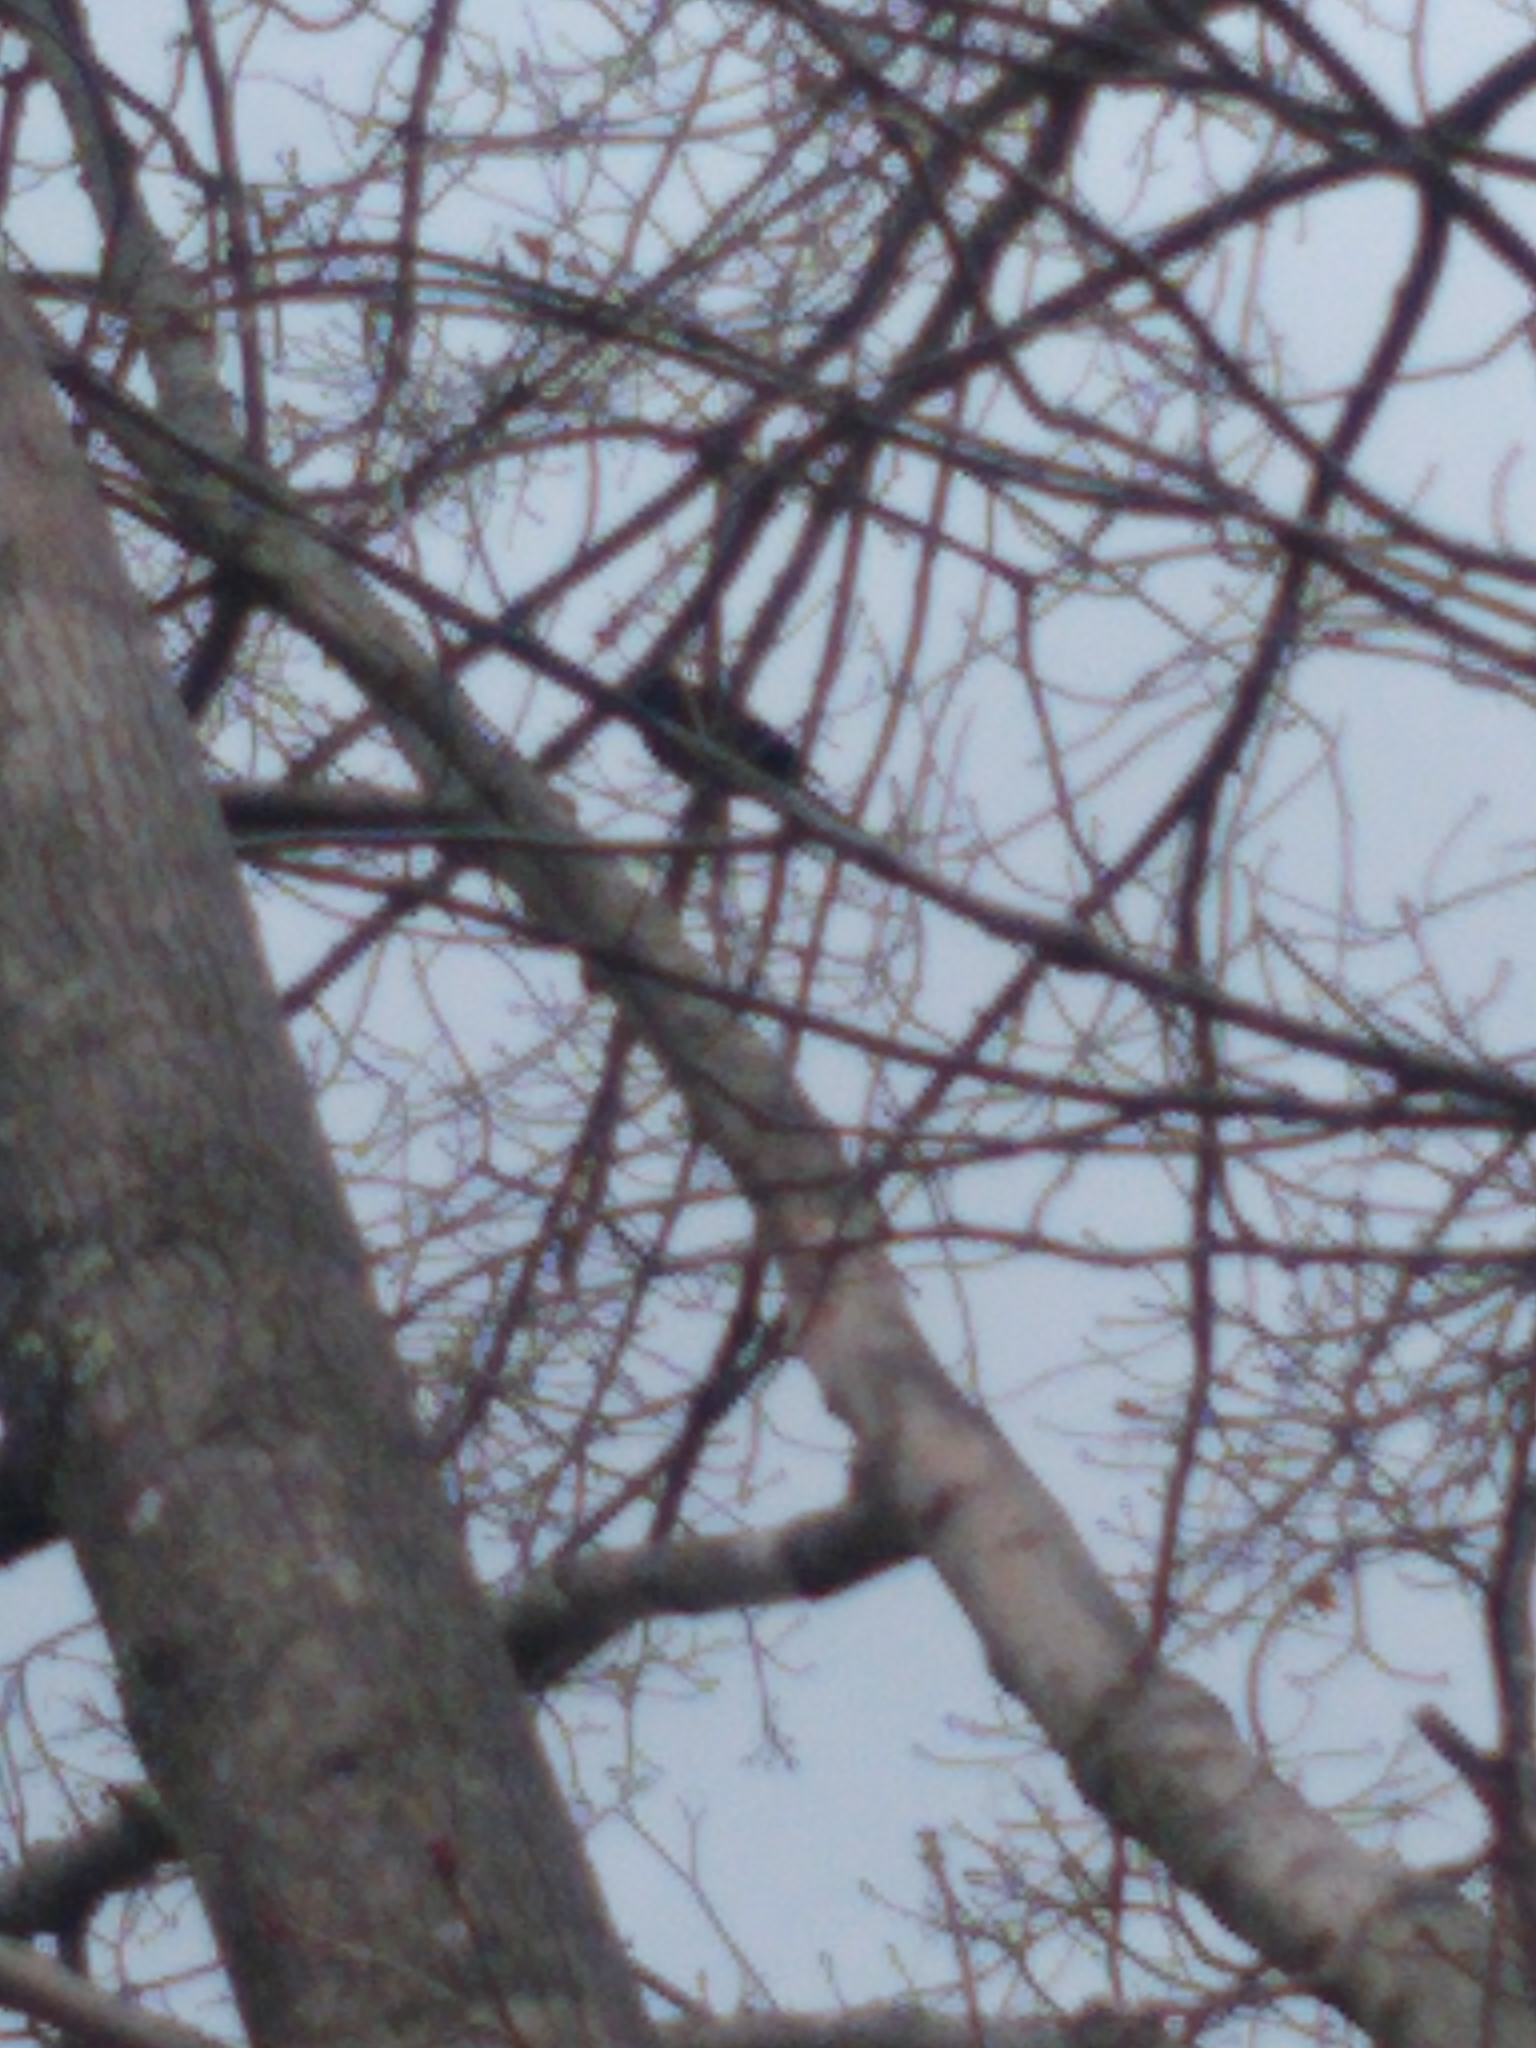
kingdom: Animalia
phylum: Chordata
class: Aves
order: Passeriformes
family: Icteridae
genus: Quiscalus
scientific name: Quiscalus quiscula
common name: Common grackle
